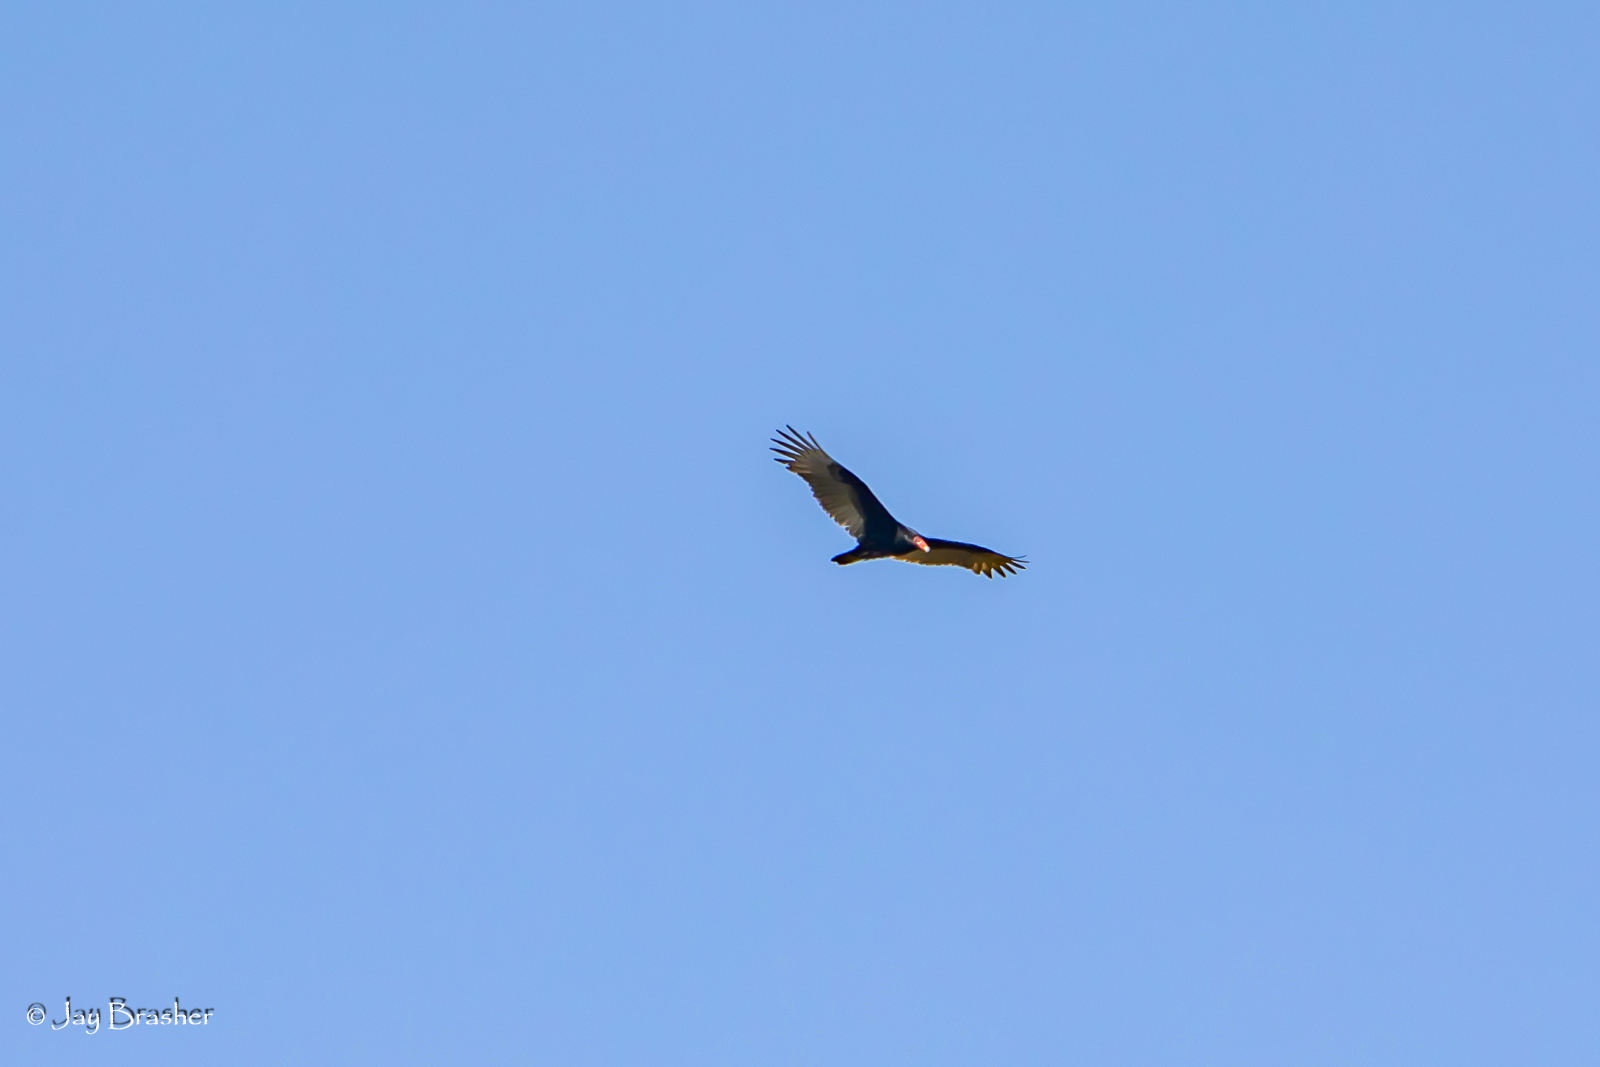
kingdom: Animalia
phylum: Chordata
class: Aves
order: Accipitriformes
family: Cathartidae
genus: Cathartes
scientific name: Cathartes aura
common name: Turkey vulture
